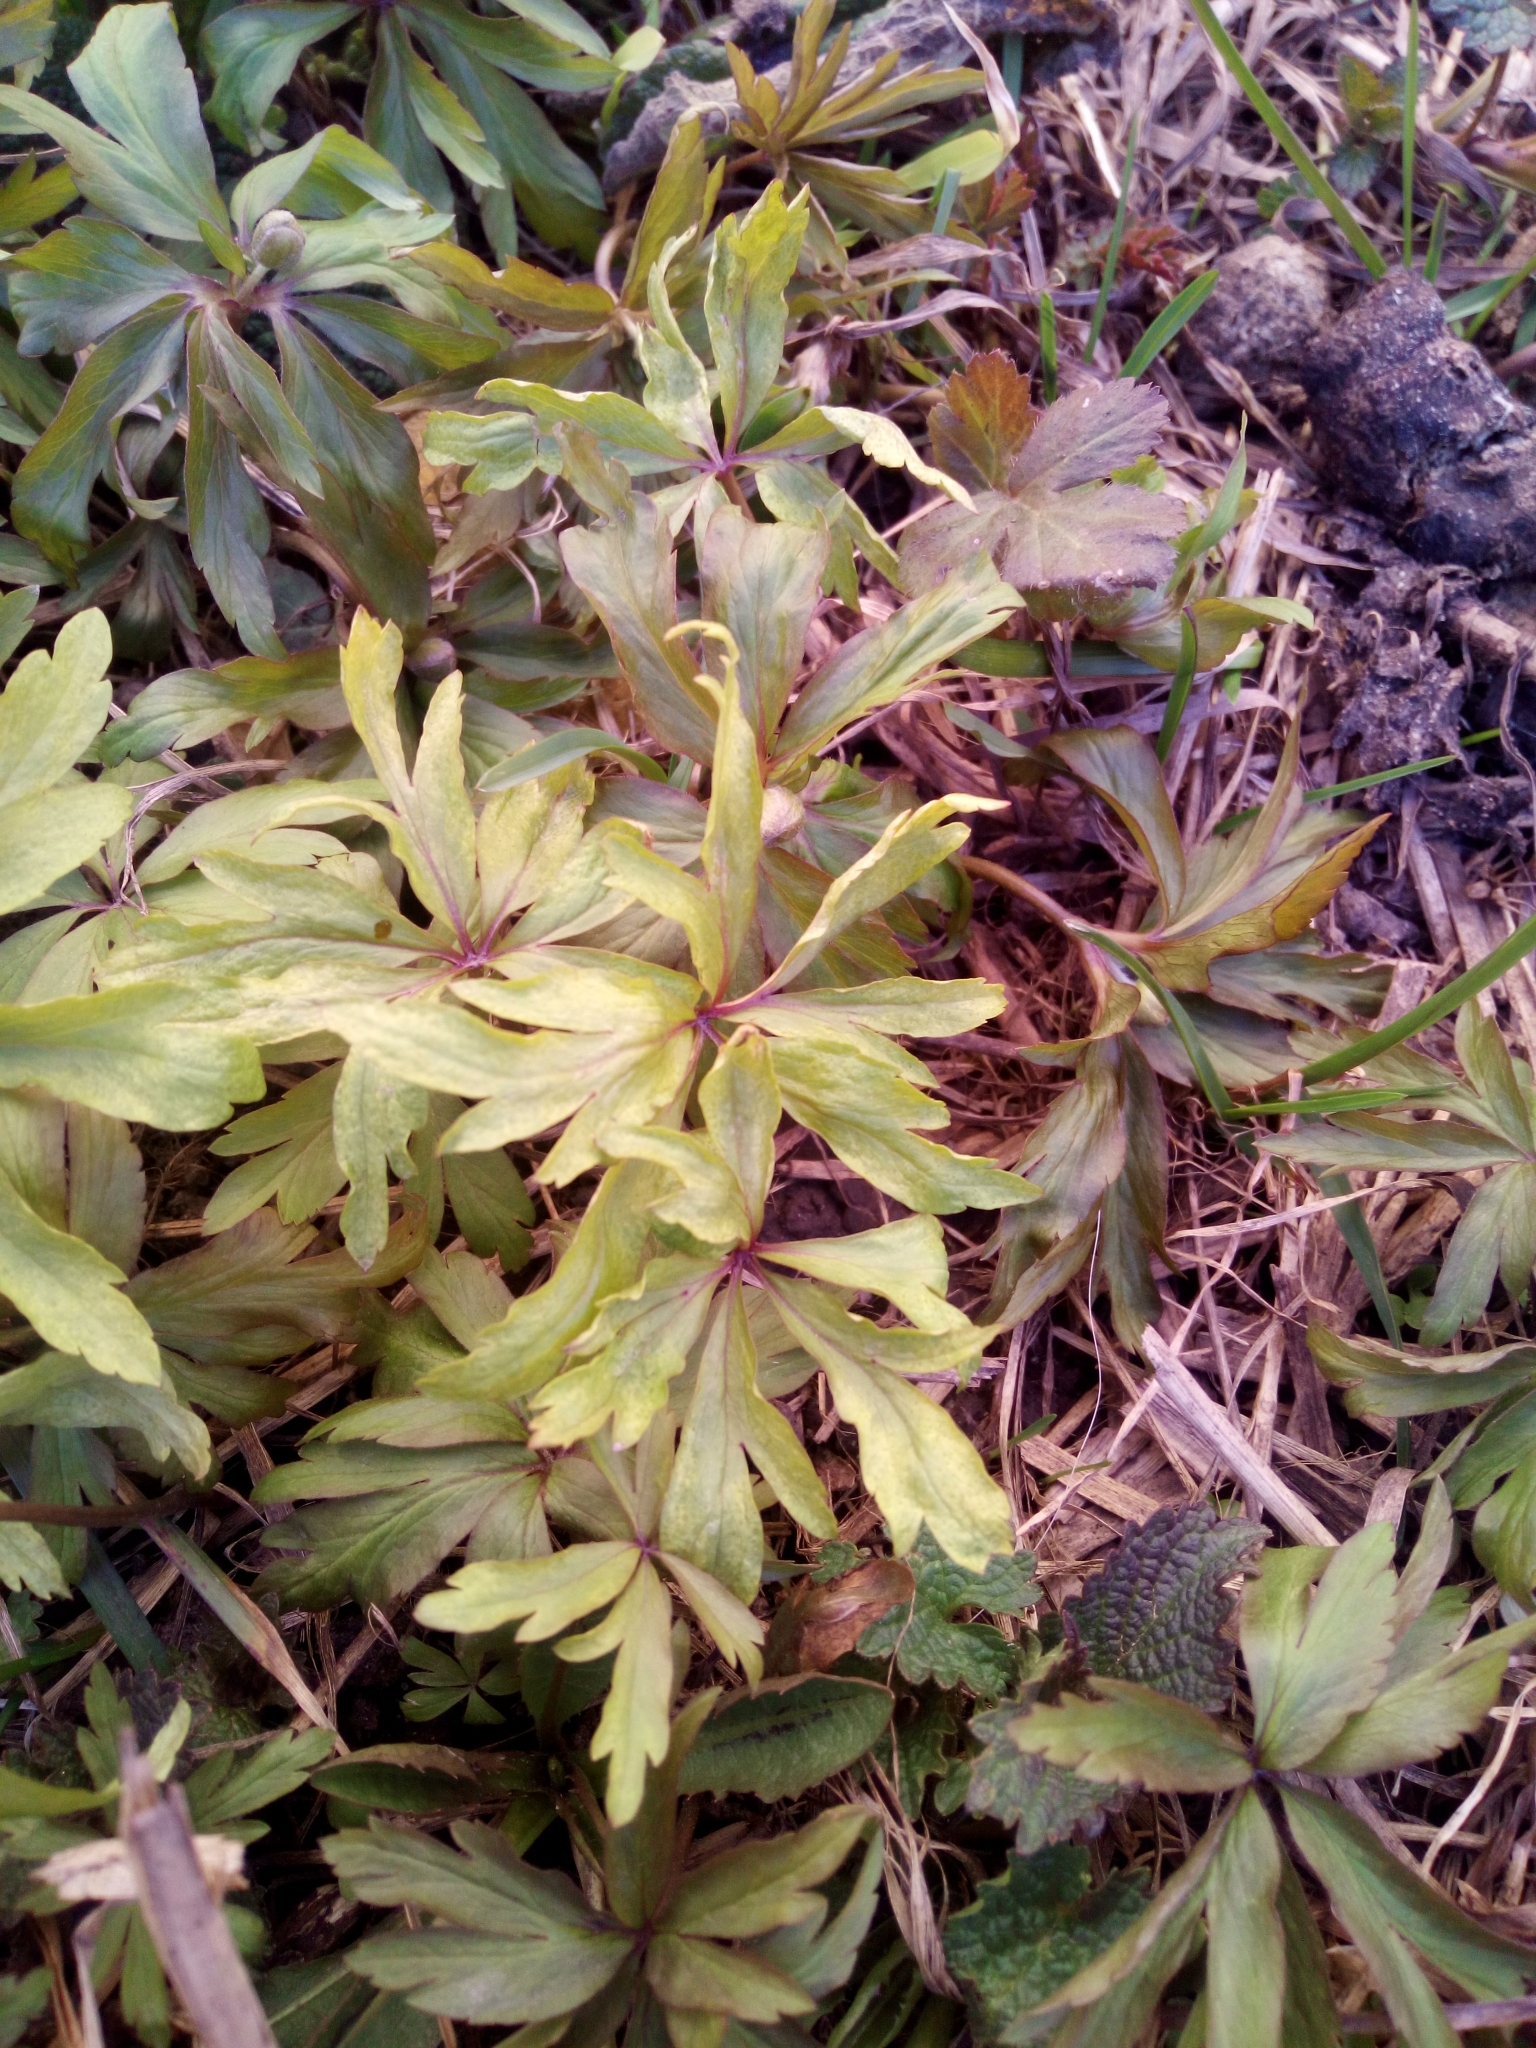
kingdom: Plantae
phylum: Tracheophyta
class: Magnoliopsida
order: Ranunculales
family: Ranunculaceae
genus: Anemone
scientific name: Anemone ranunculoides
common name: Yellow anemone
